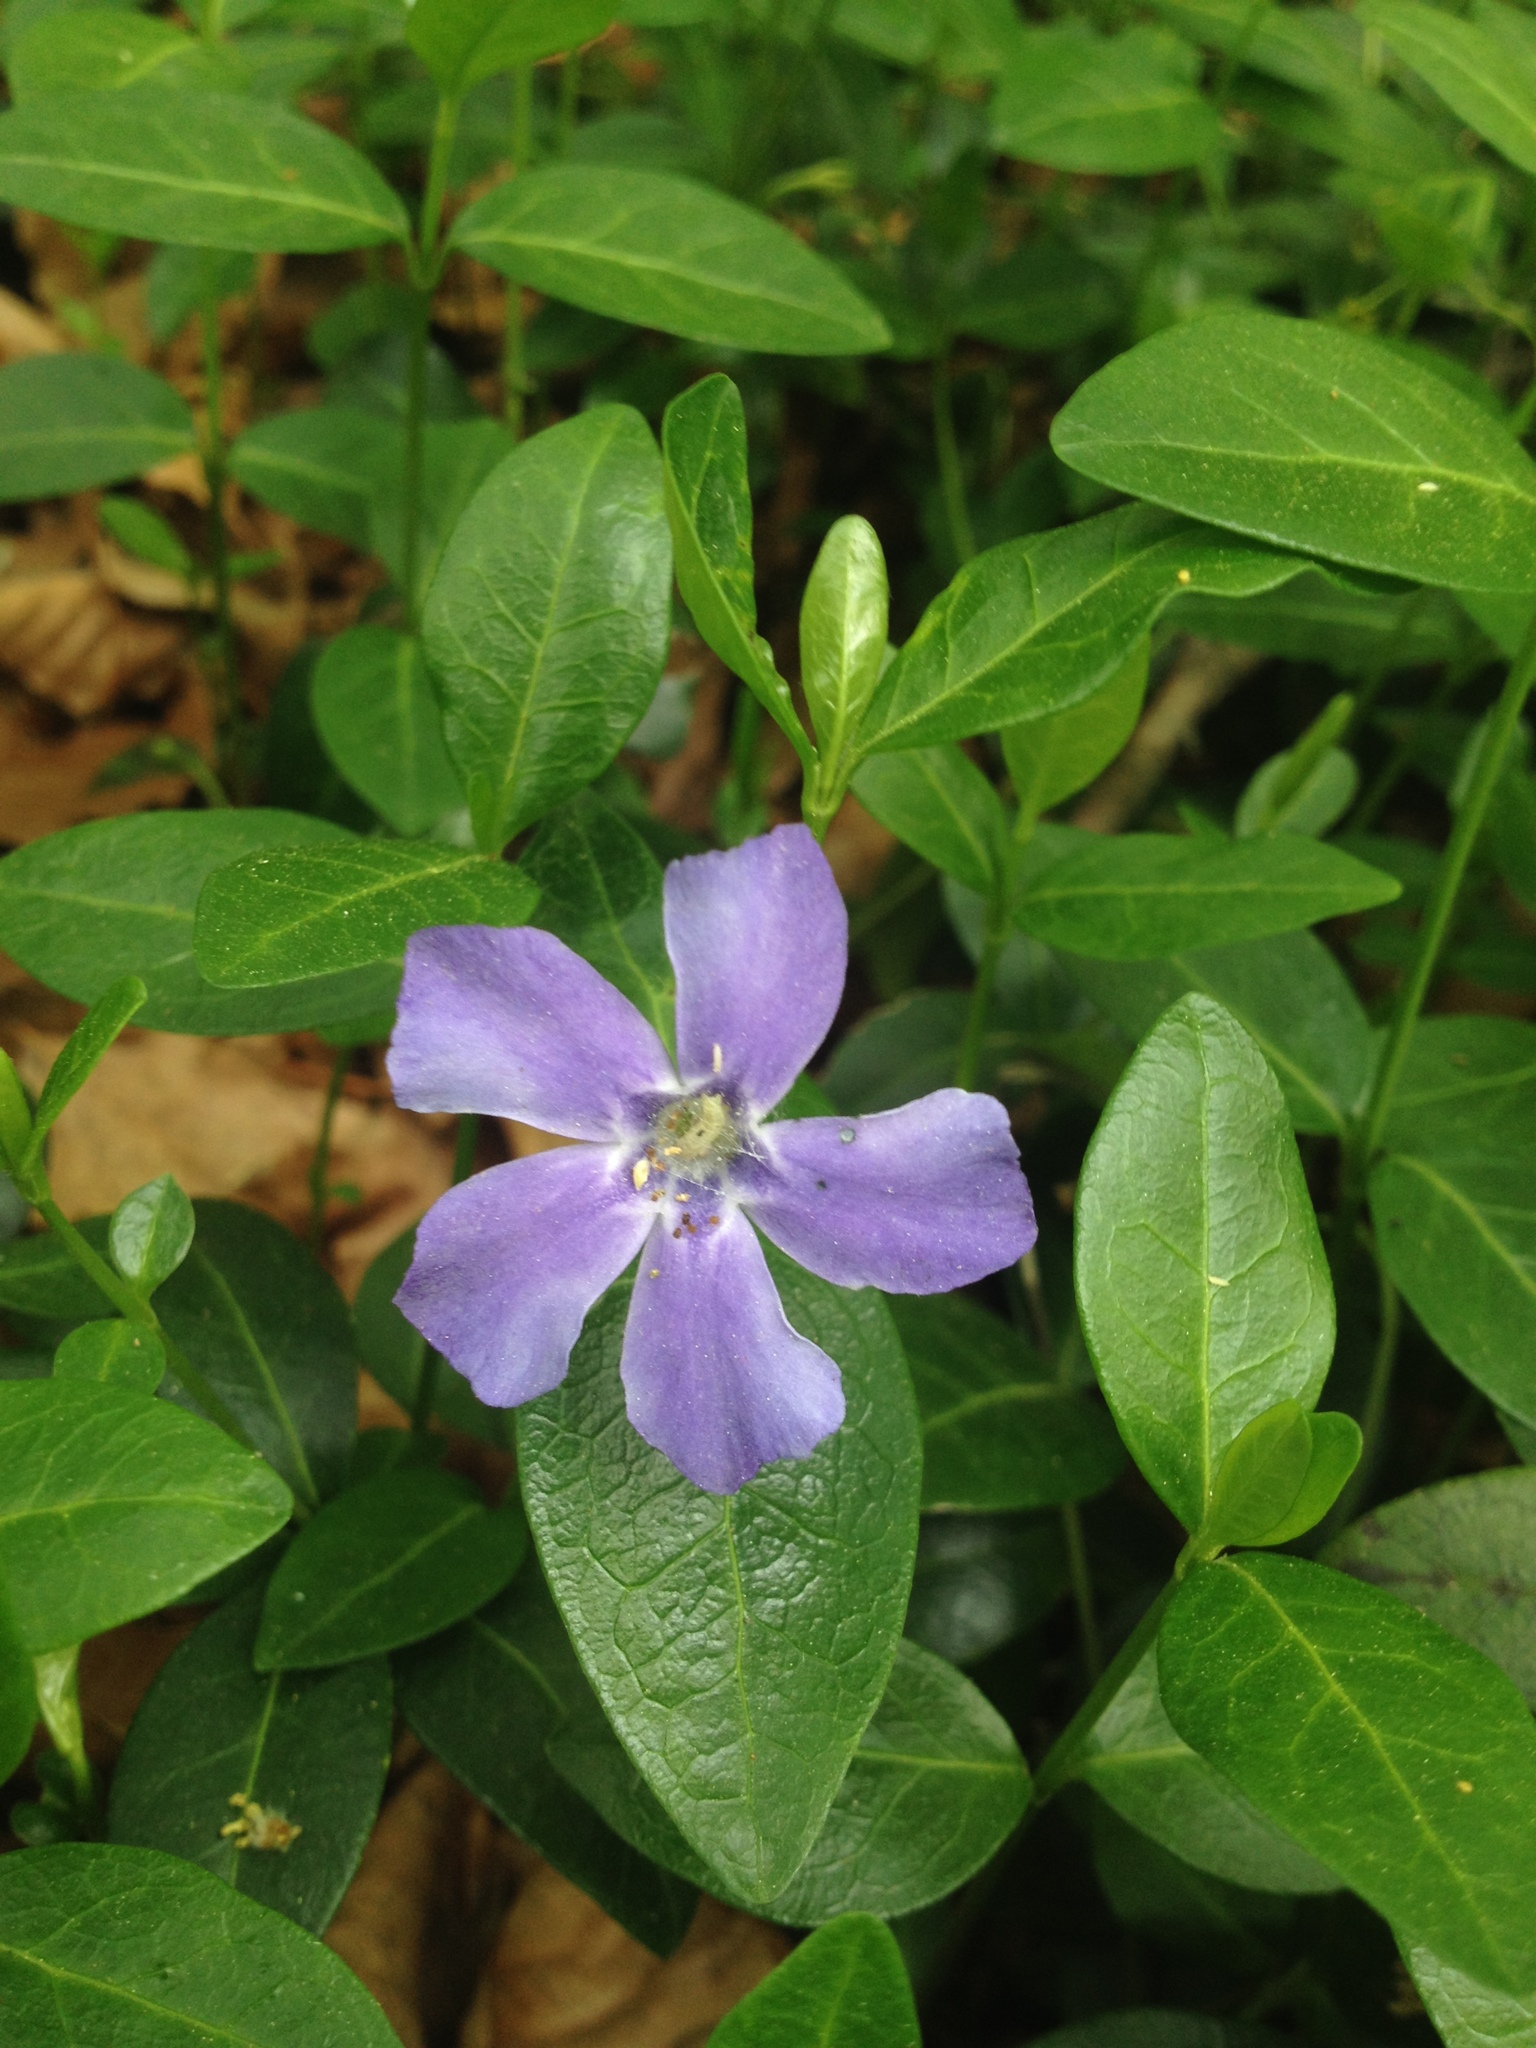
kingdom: Plantae
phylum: Tracheophyta
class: Magnoliopsida
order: Gentianales
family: Apocynaceae
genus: Vinca
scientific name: Vinca minor
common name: Lesser periwinkle
